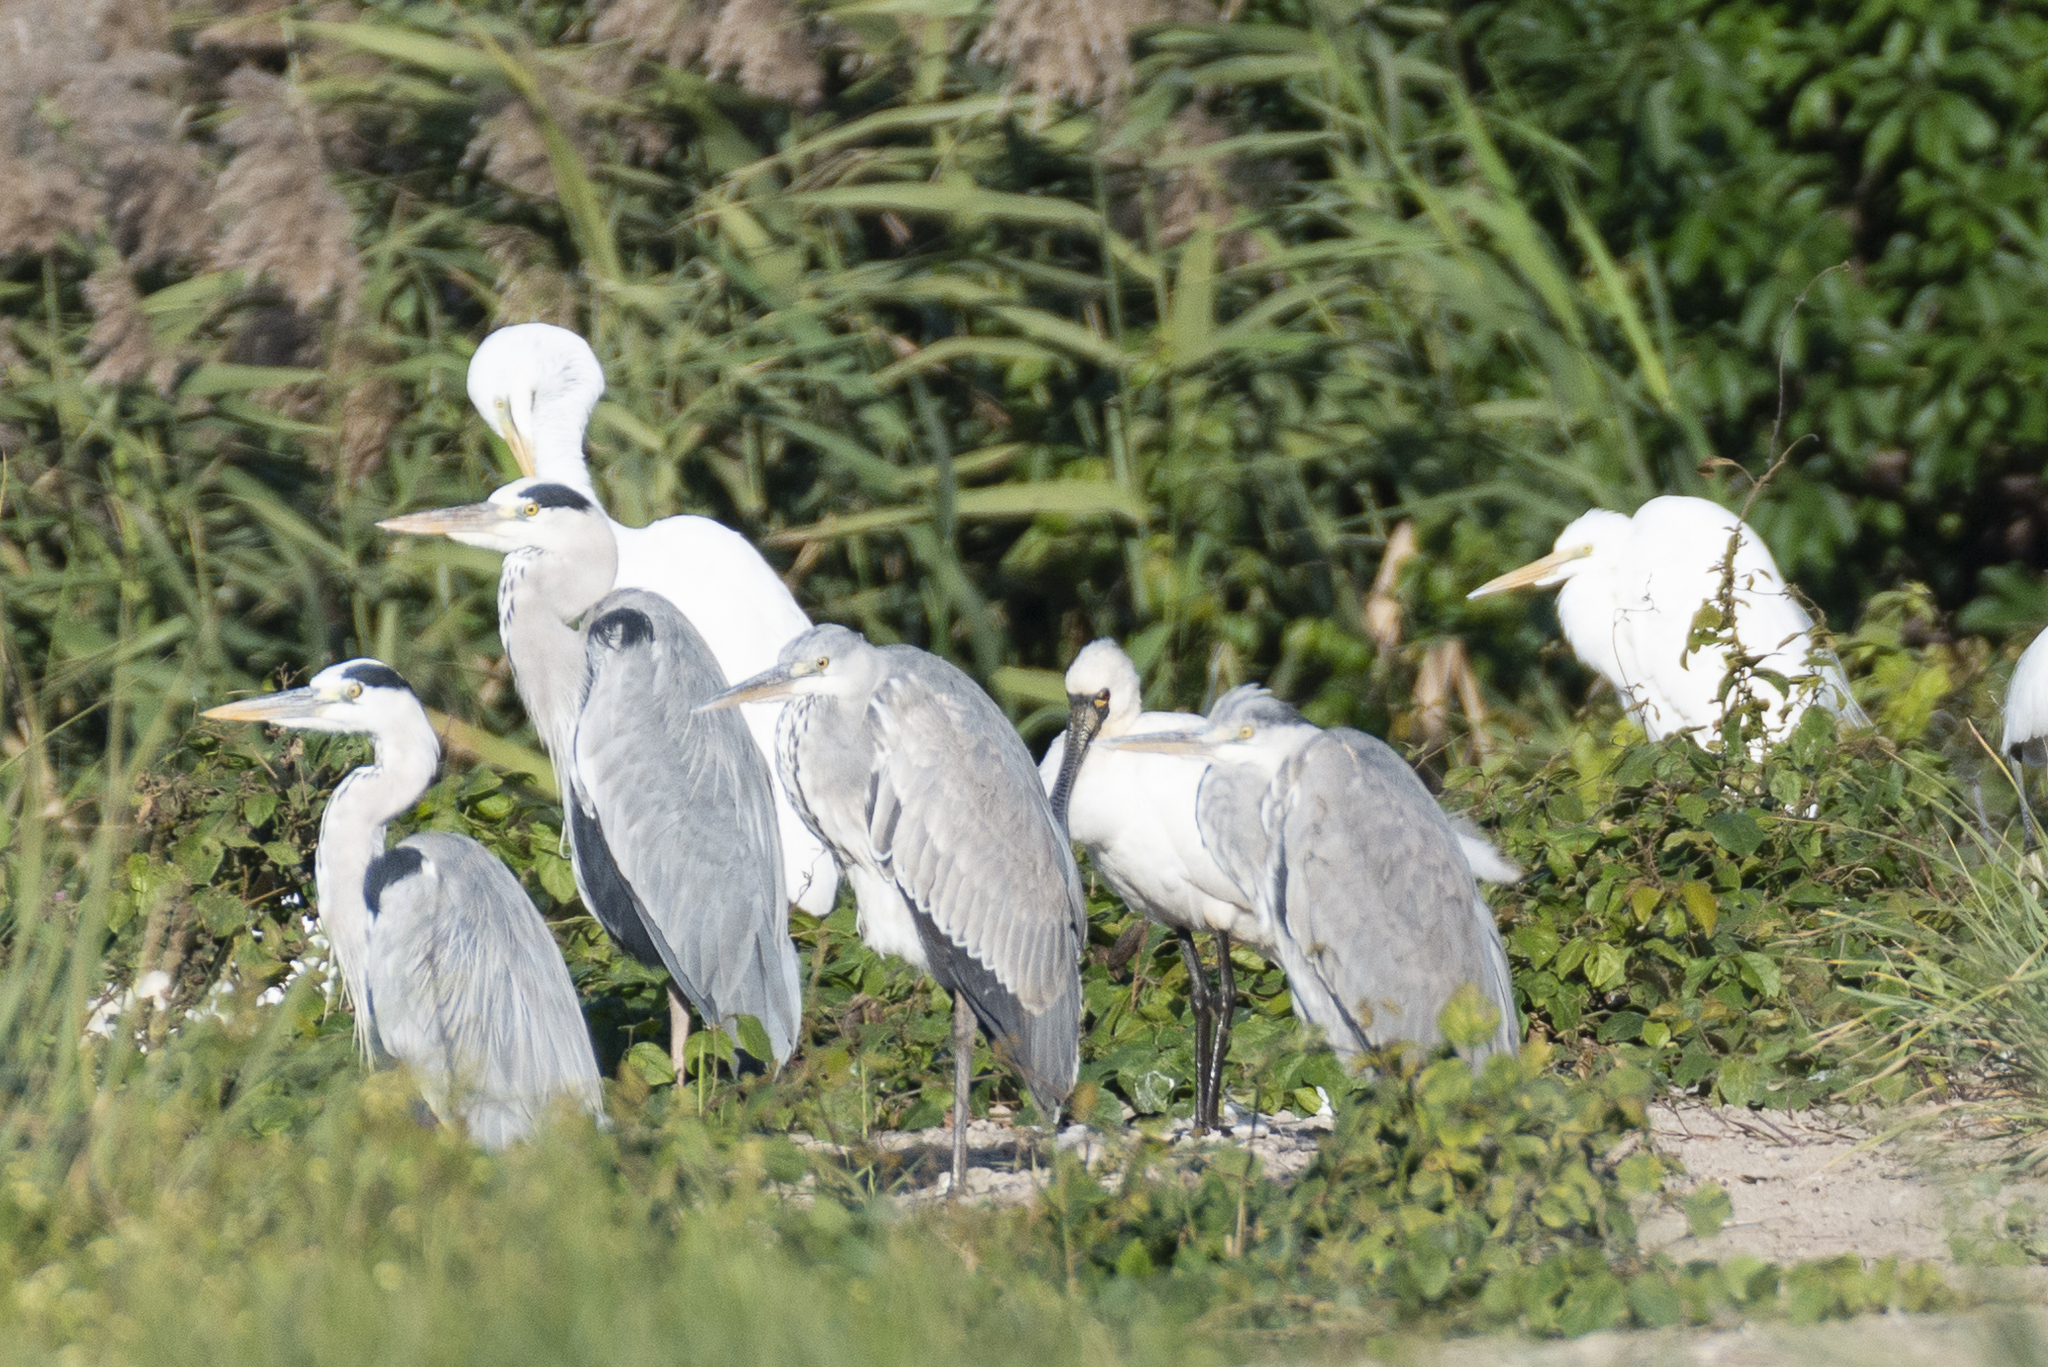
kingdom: Animalia
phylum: Chordata
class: Aves
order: Pelecaniformes
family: Ardeidae
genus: Ardea
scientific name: Ardea cinerea
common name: Grey heron
